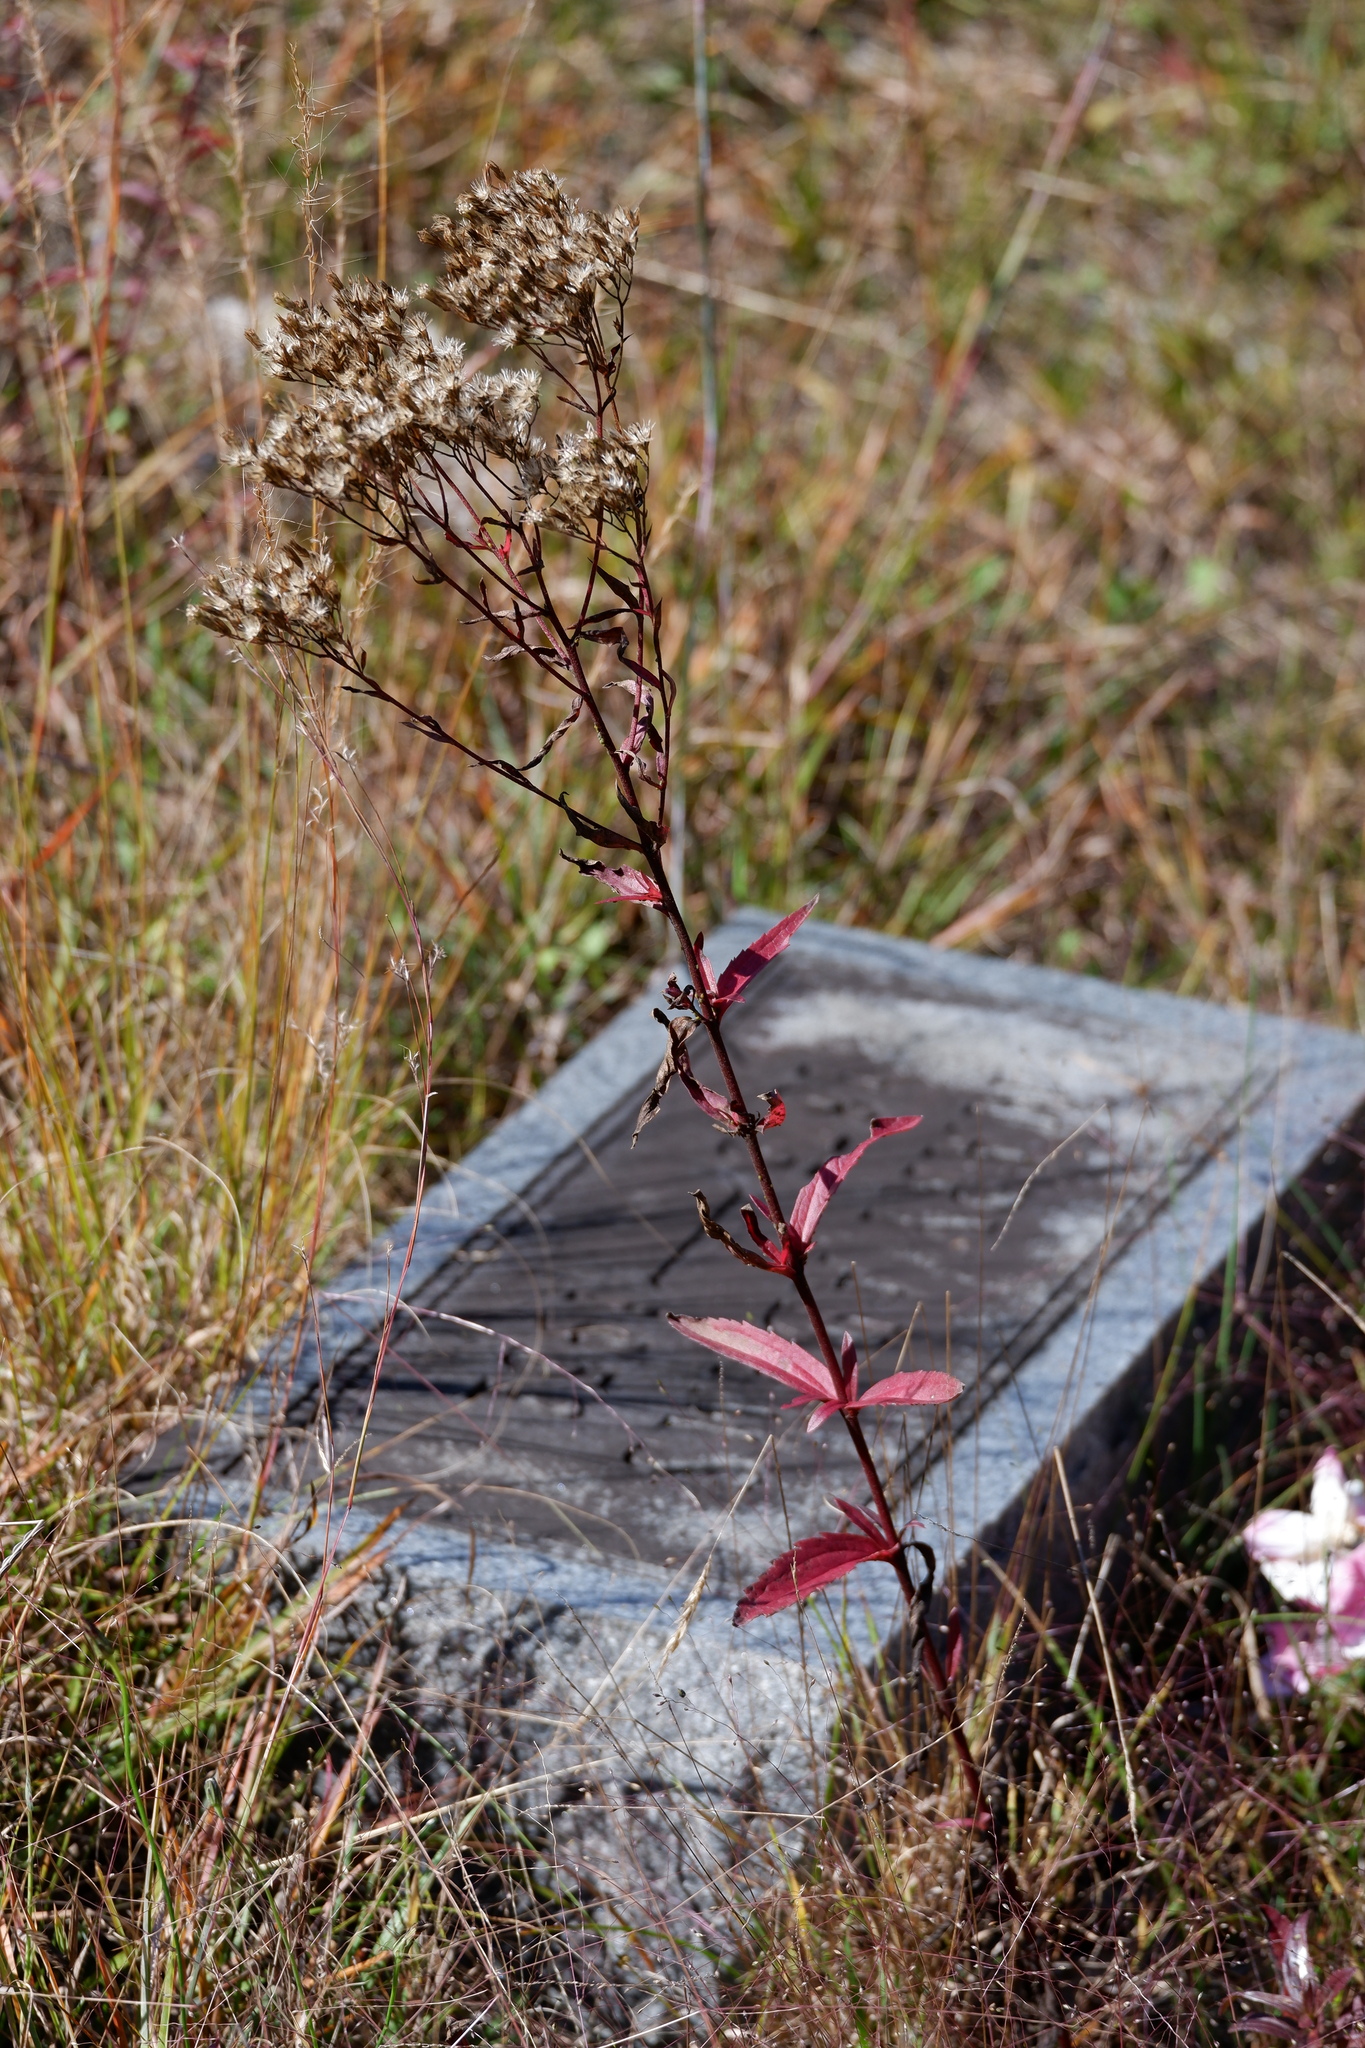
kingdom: Plantae
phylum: Tracheophyta
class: Magnoliopsida
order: Asterales
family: Asteraceae
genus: Eupatorium
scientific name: Eupatorium subvenosum
